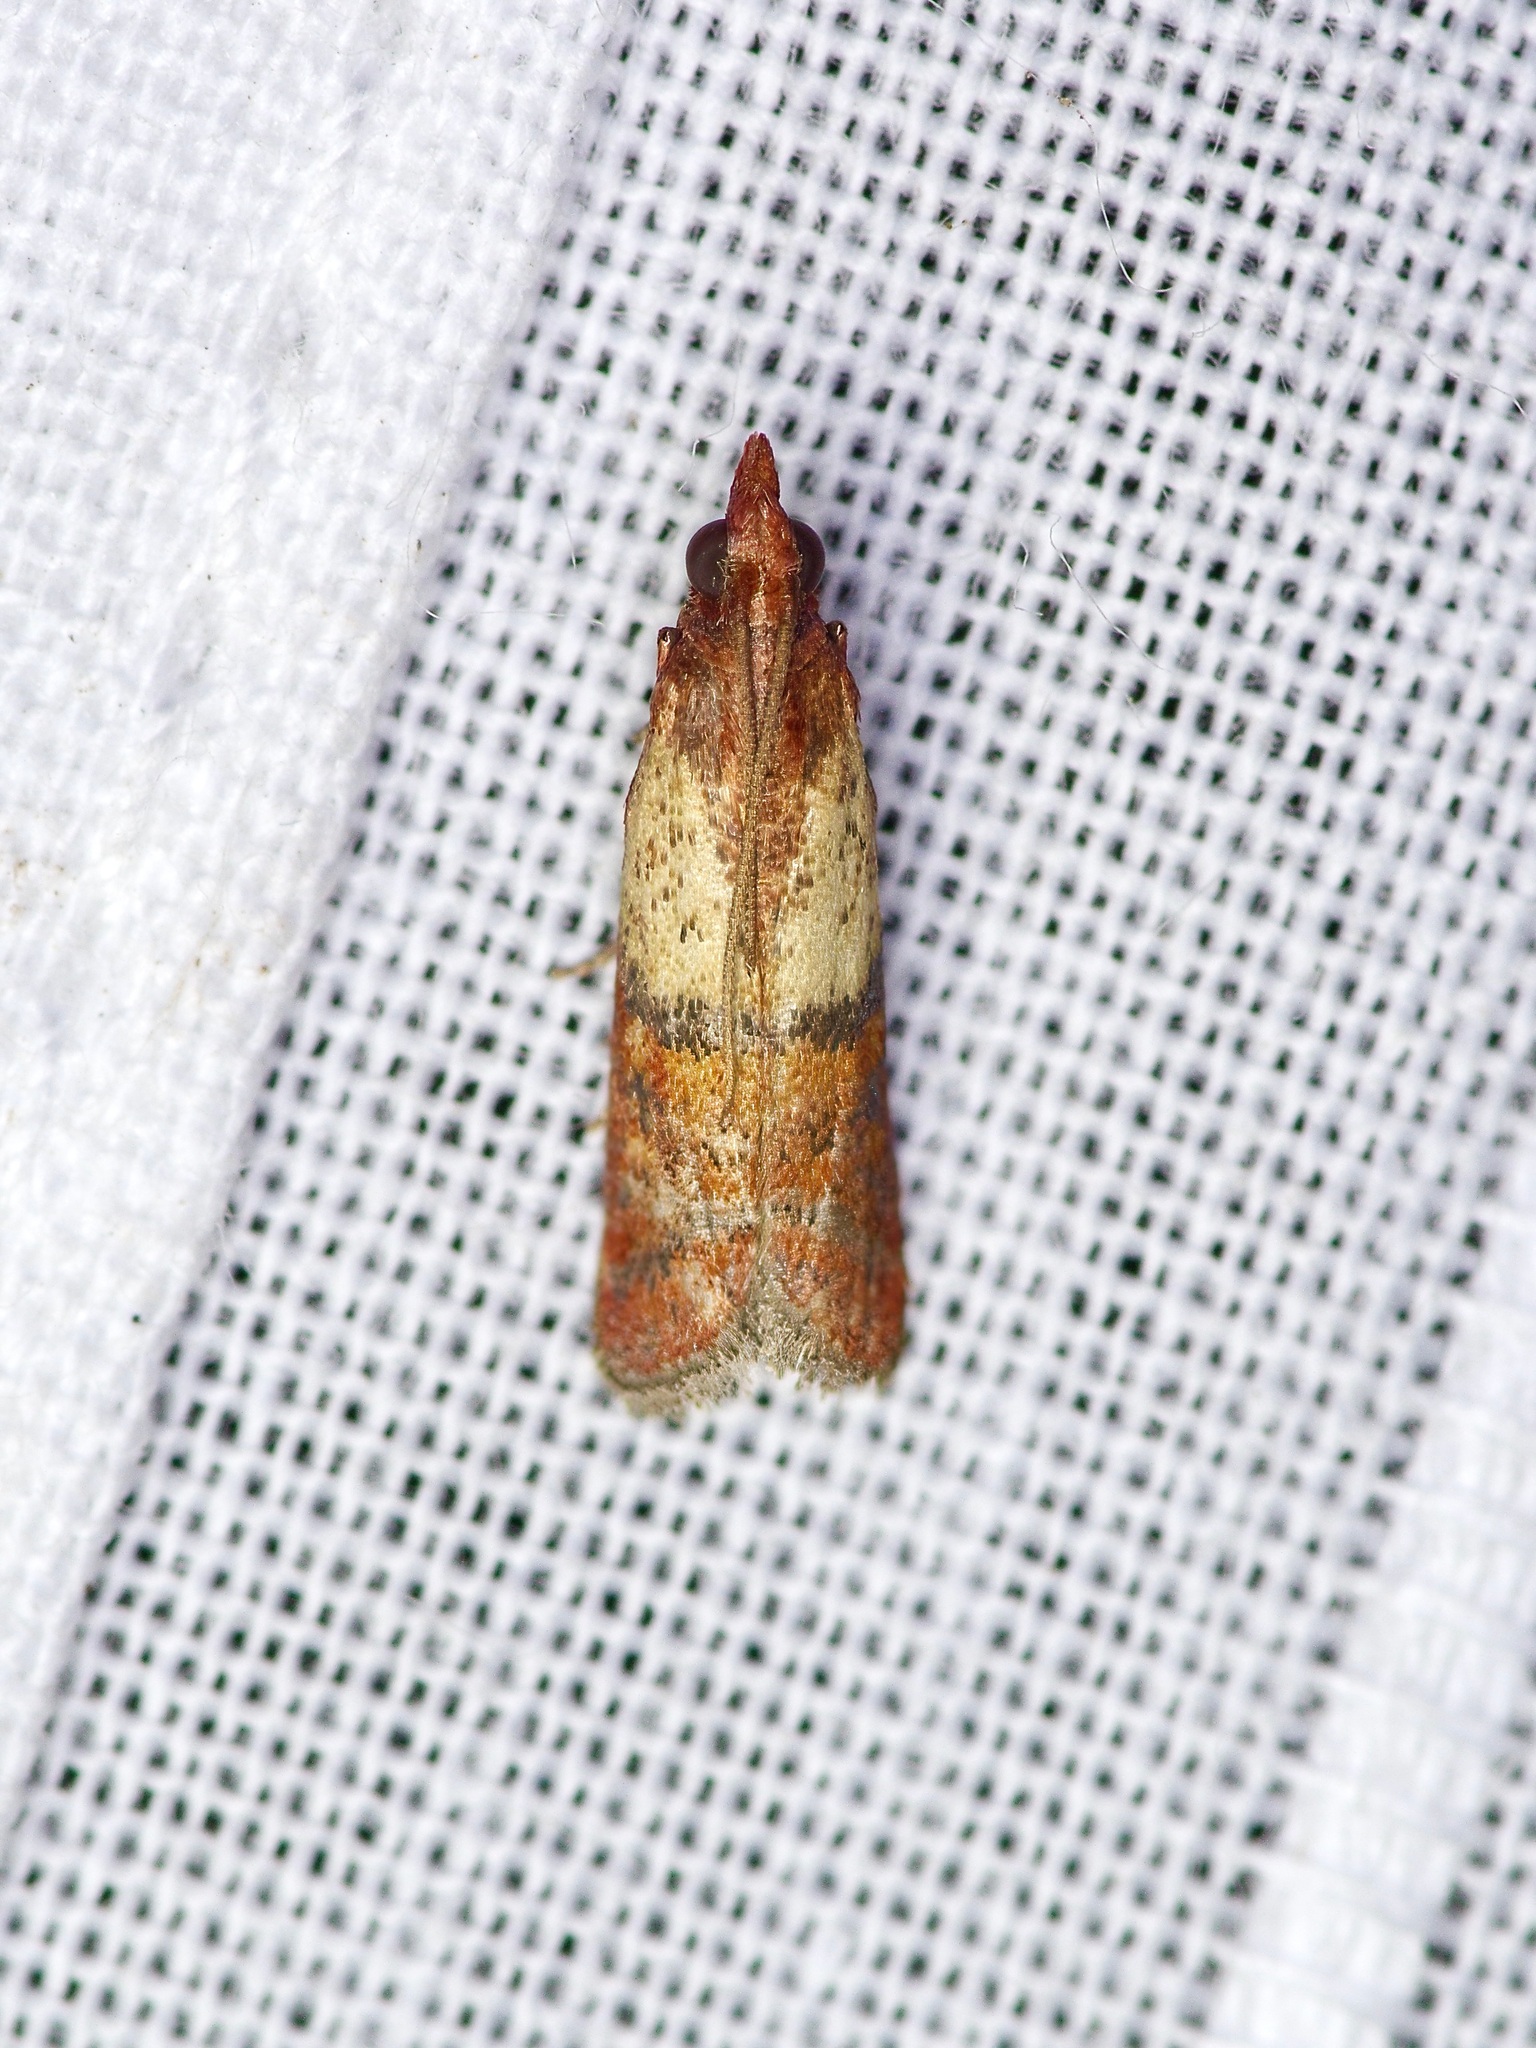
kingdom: Animalia
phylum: Arthropoda
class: Insecta
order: Lepidoptera
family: Pyralidae
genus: Plodia
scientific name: Plodia interpunctella
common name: Indian meal moth
